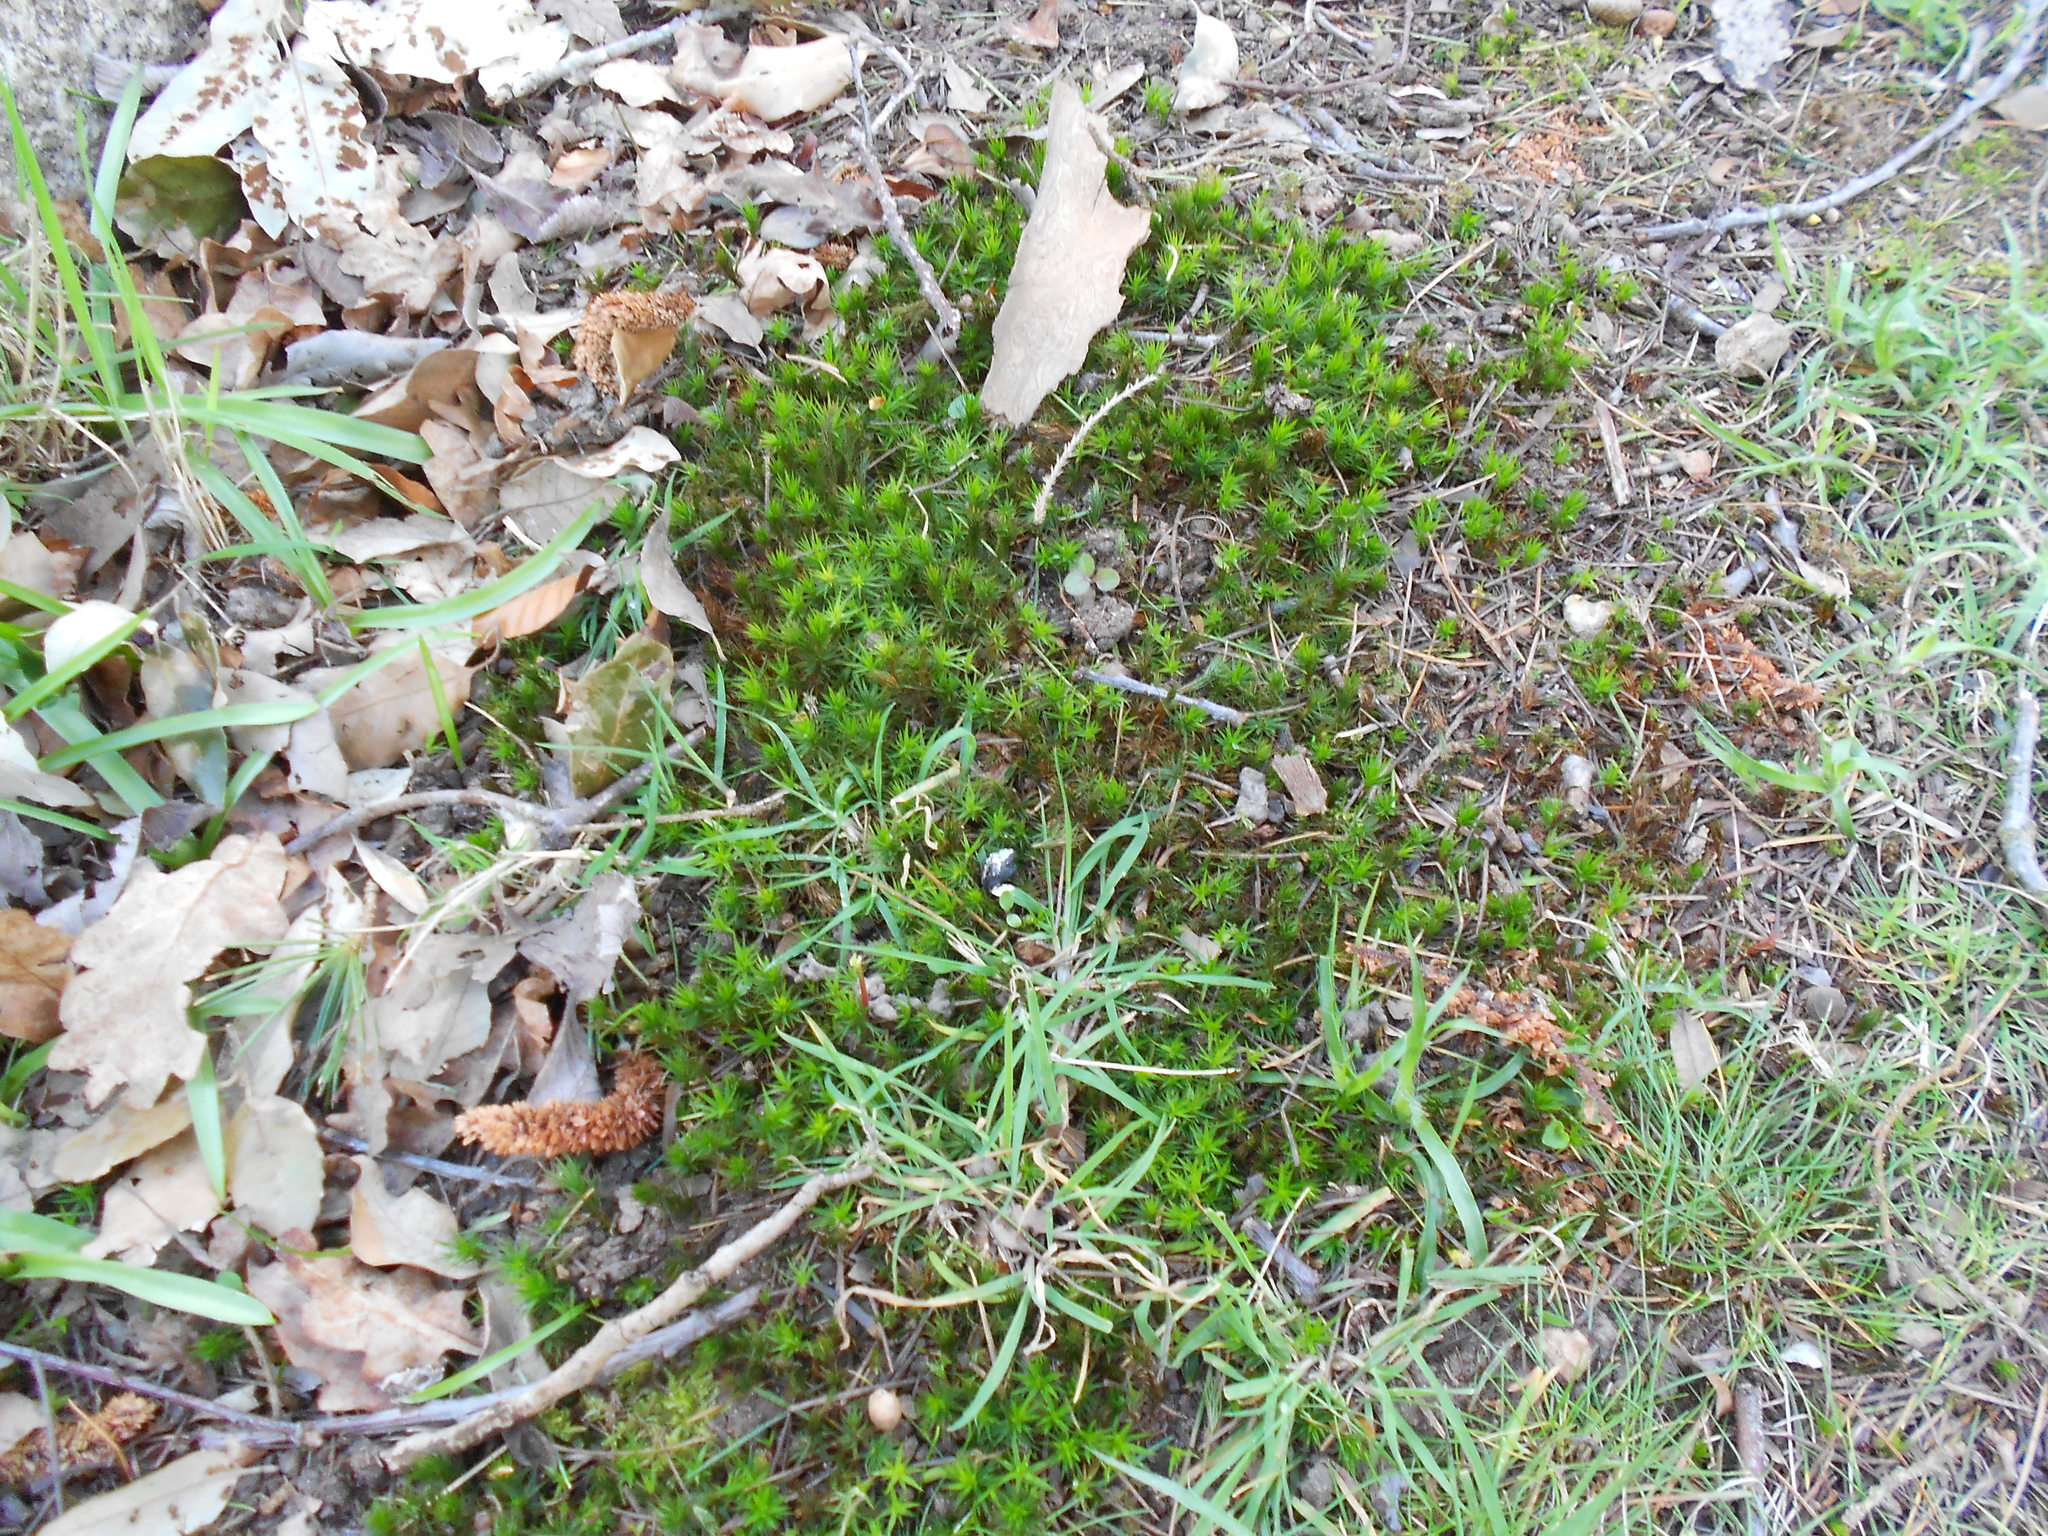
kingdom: Plantae
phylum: Bryophyta
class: Polytrichopsida
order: Polytrichales
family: Polytrichaceae
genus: Polytrichum
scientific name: Polytrichum formosum
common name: Bank haircap moss
